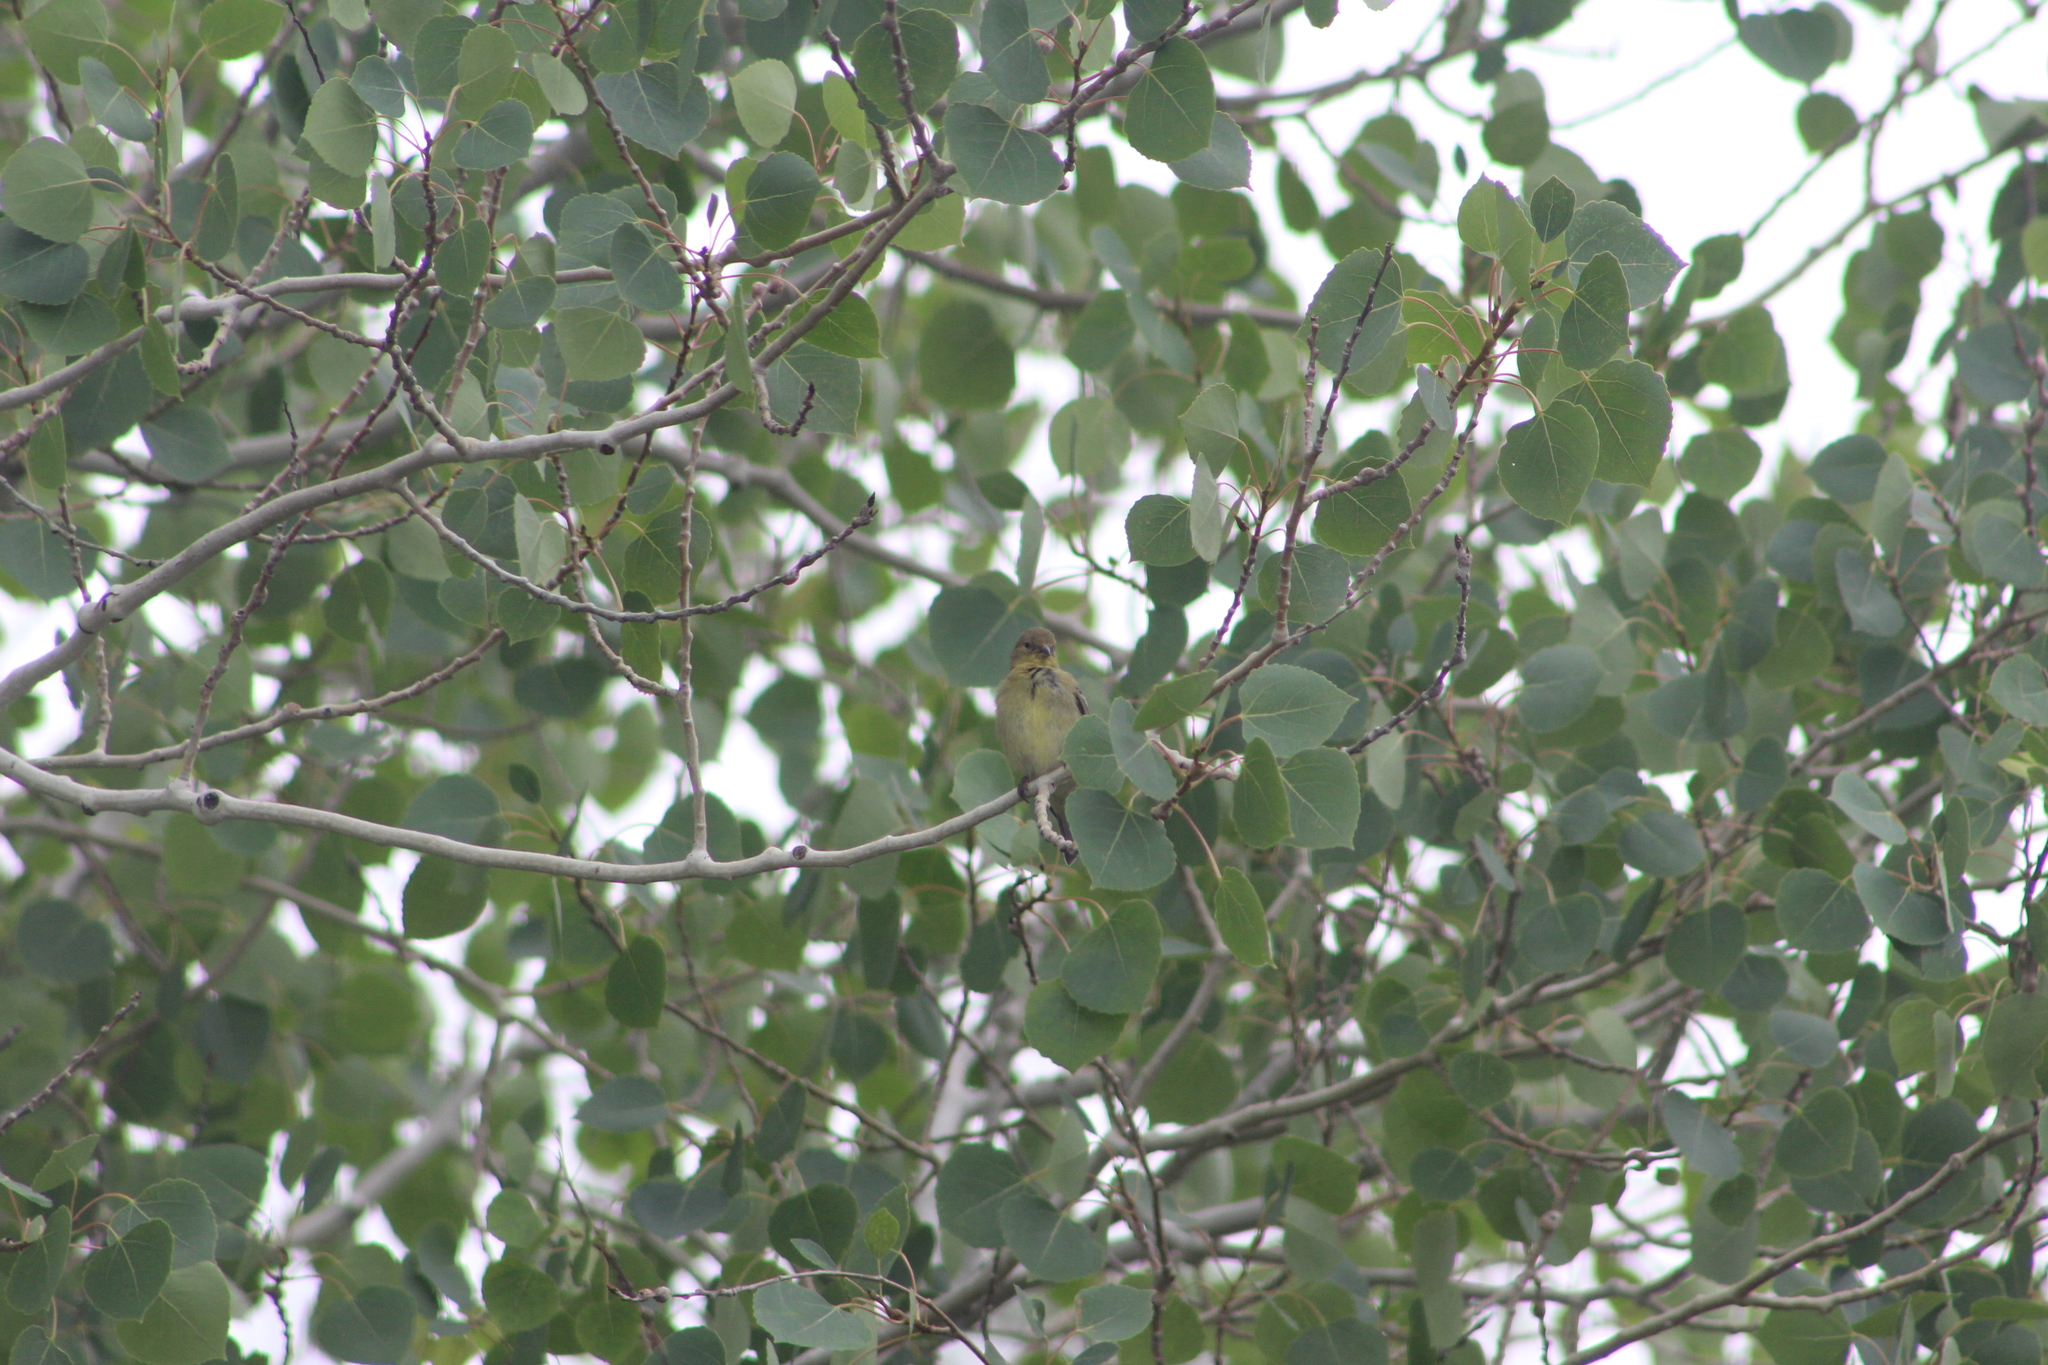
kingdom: Animalia
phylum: Chordata
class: Aves
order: Passeriformes
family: Fringillidae
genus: Spinus
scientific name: Spinus psaltria
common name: Lesser goldfinch
